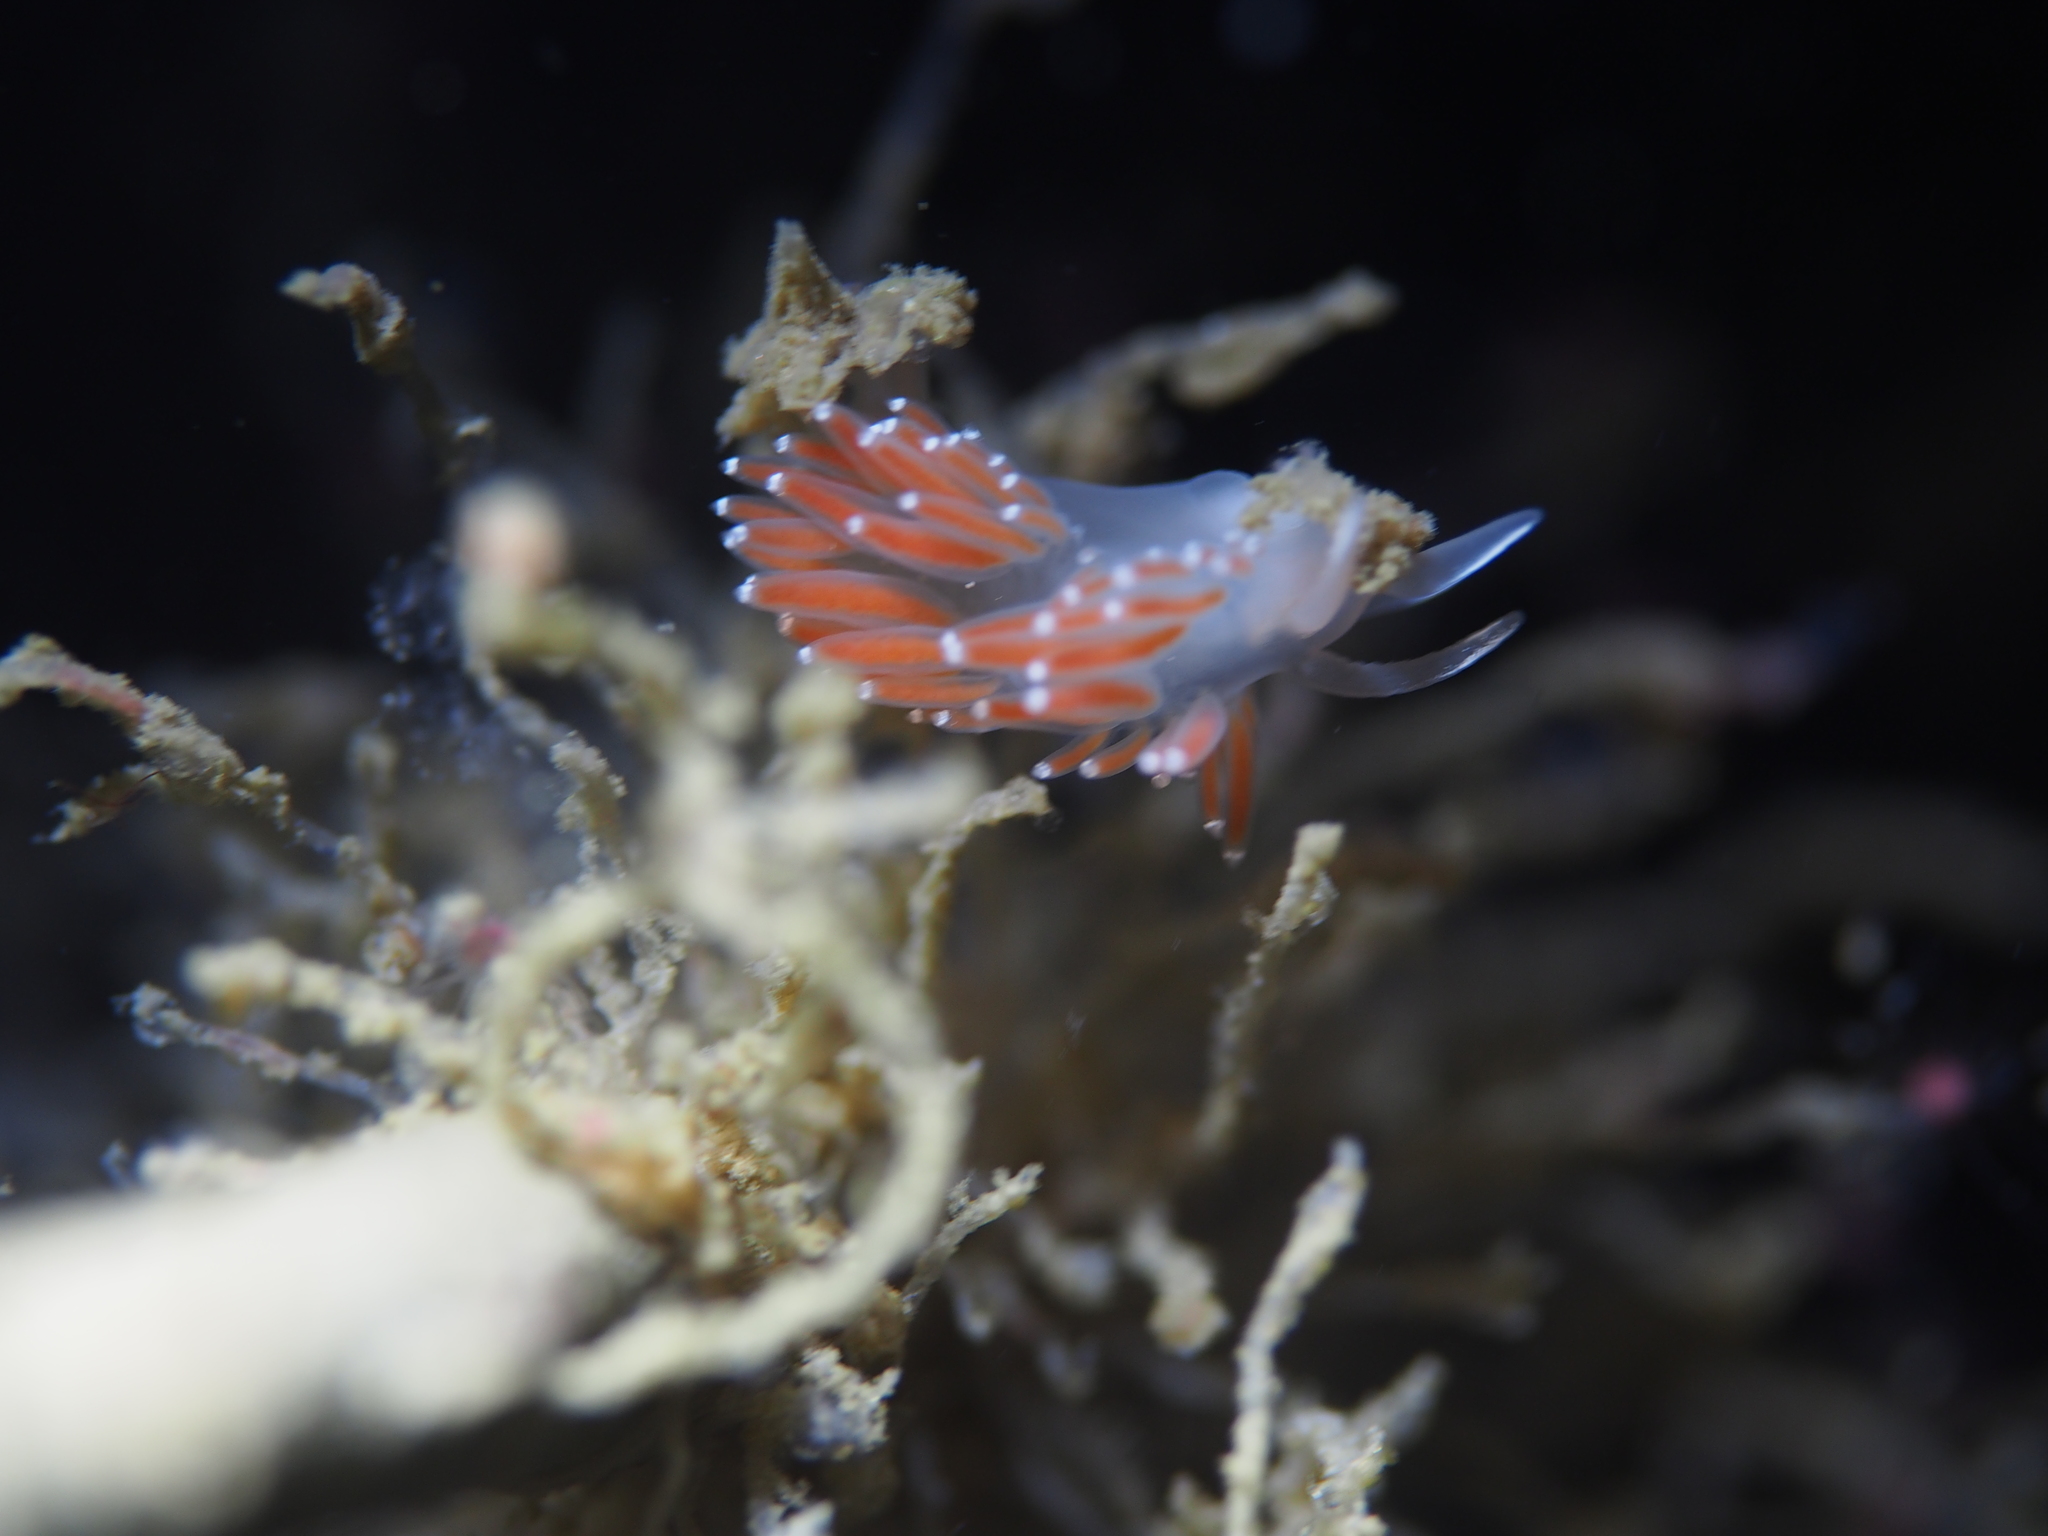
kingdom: Animalia
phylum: Mollusca
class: Gastropoda
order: Nudibranchia
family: Coryphellidae
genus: Coryphella
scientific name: Coryphella verrucosa
